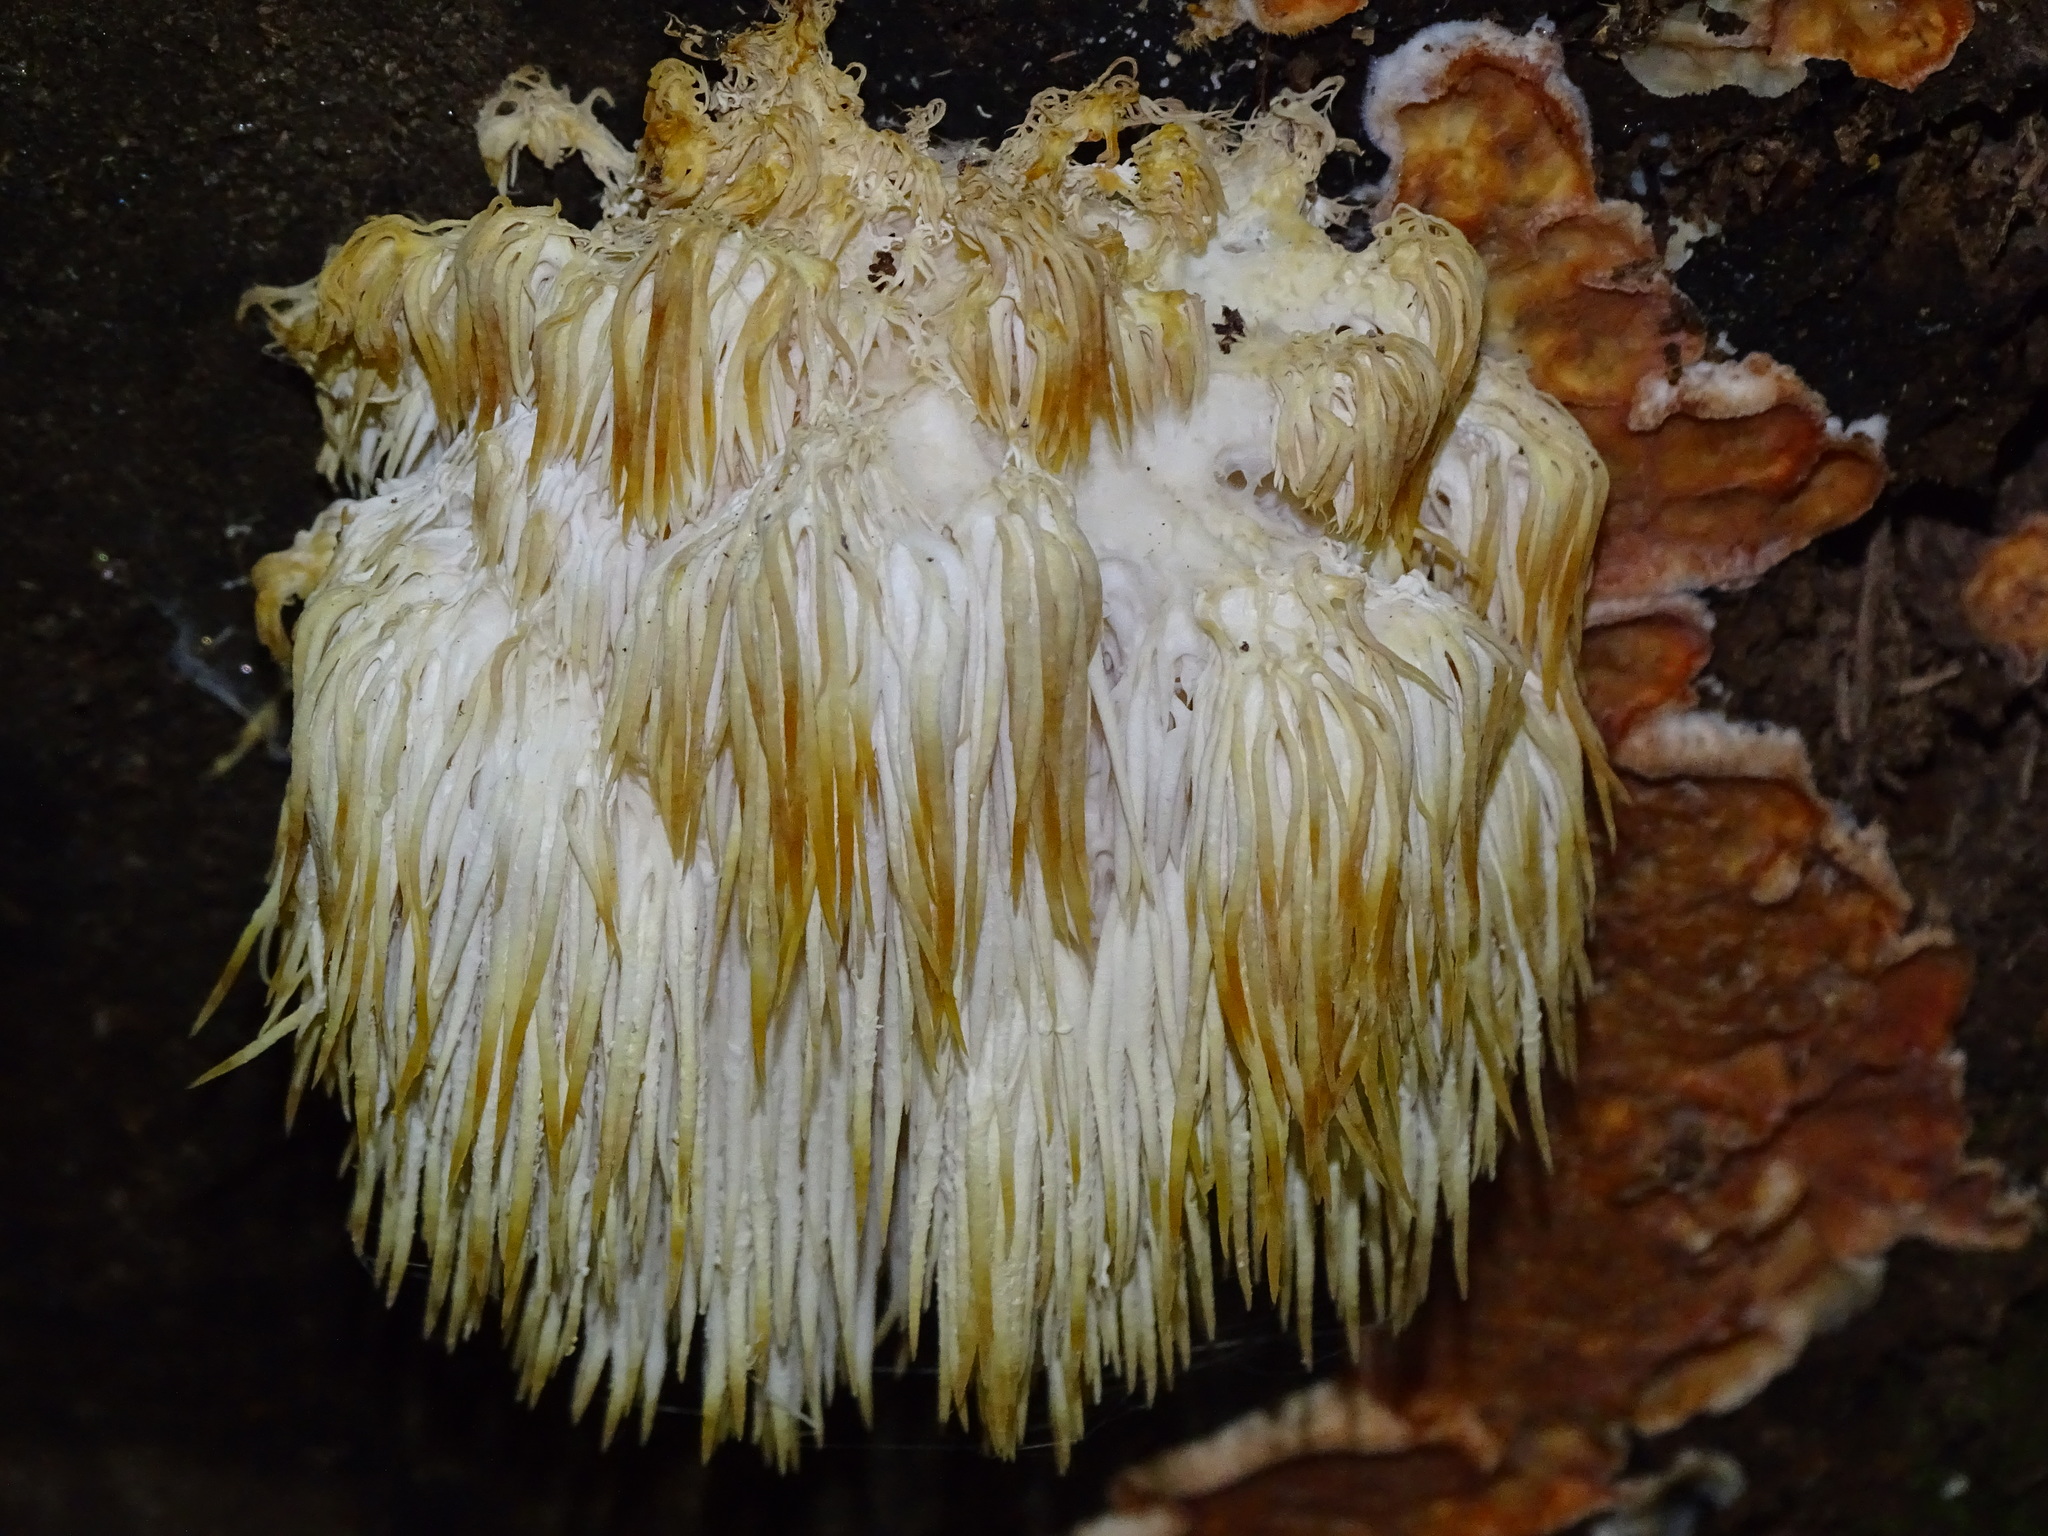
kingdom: Fungi
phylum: Basidiomycota
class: Agaricomycetes
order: Russulales
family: Hericiaceae
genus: Hericium
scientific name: Hericium erinaceus
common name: Bearded tooth
